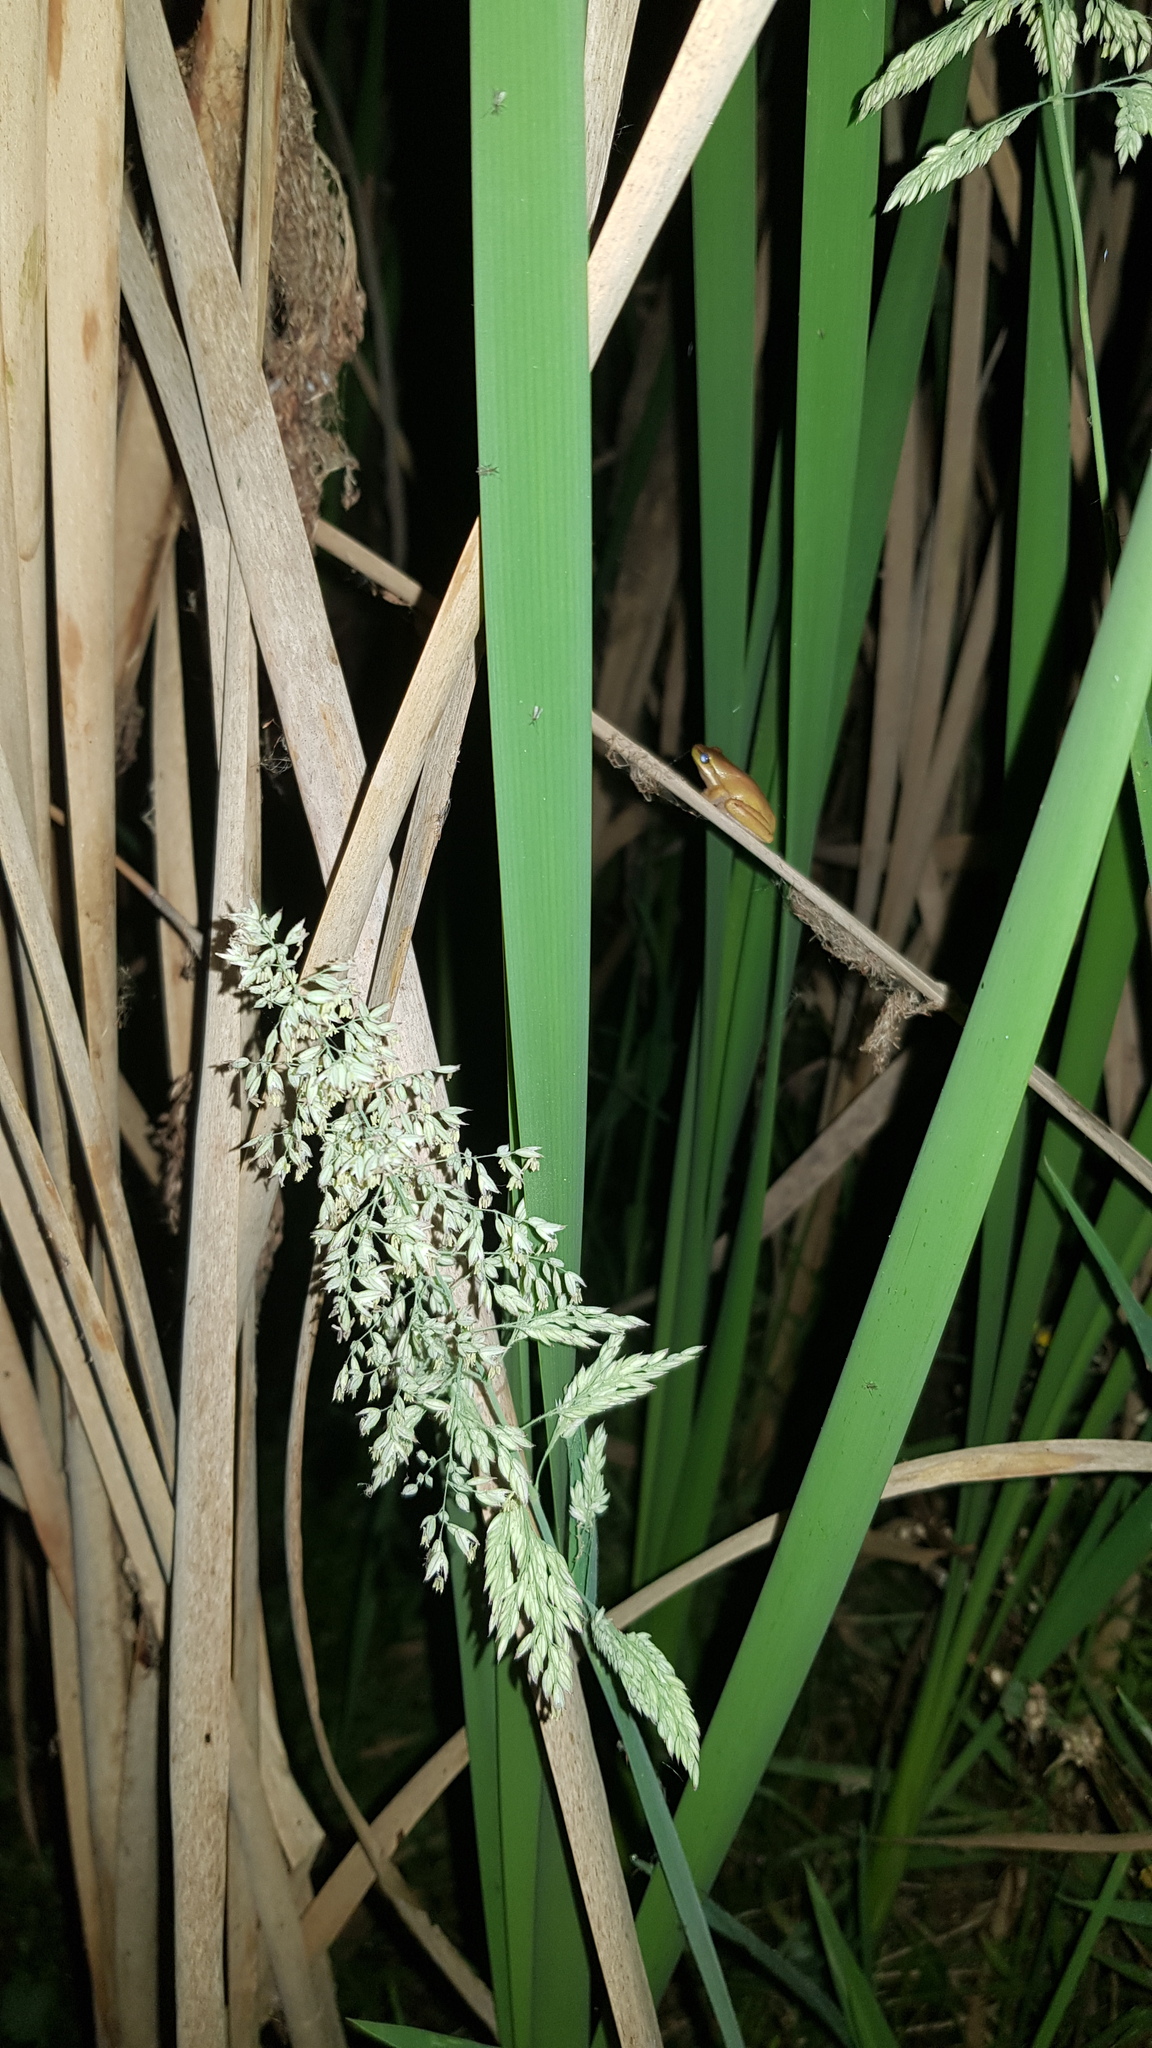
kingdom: Animalia
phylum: Chordata
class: Amphibia
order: Anura
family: Pelodryadidae
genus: Litoria
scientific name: Litoria fallax
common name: Eastern dwarf treefrog
